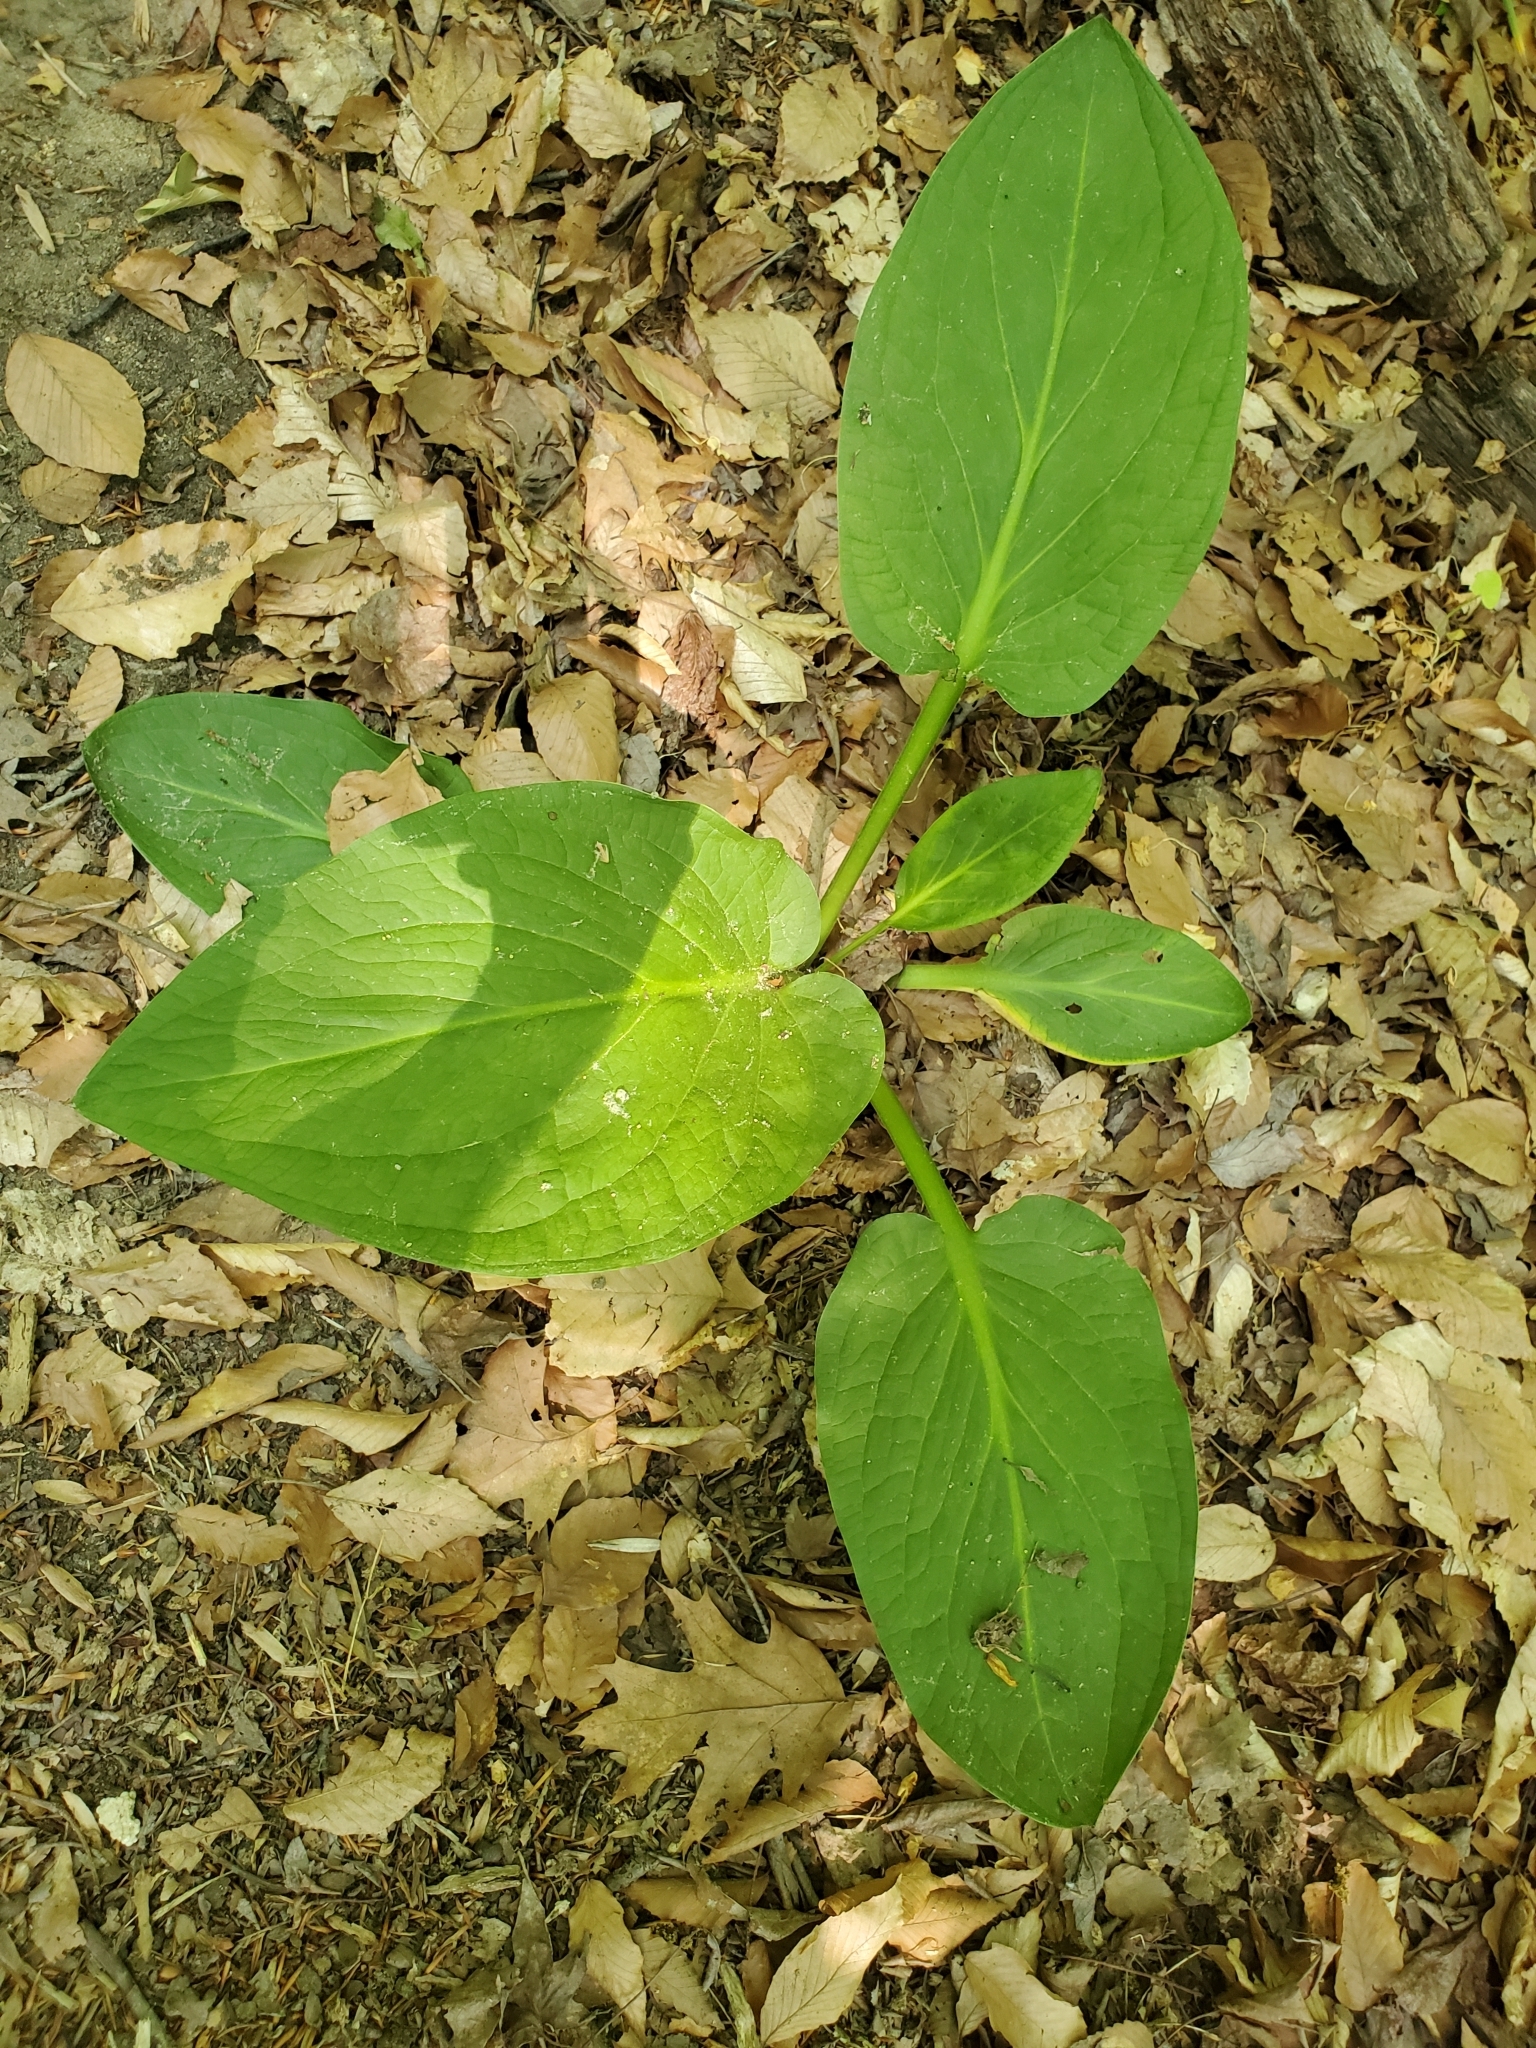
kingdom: Plantae
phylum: Tracheophyta
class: Liliopsida
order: Alismatales
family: Araceae
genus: Symplocarpus
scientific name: Symplocarpus foetidus
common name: Eastern skunk cabbage
